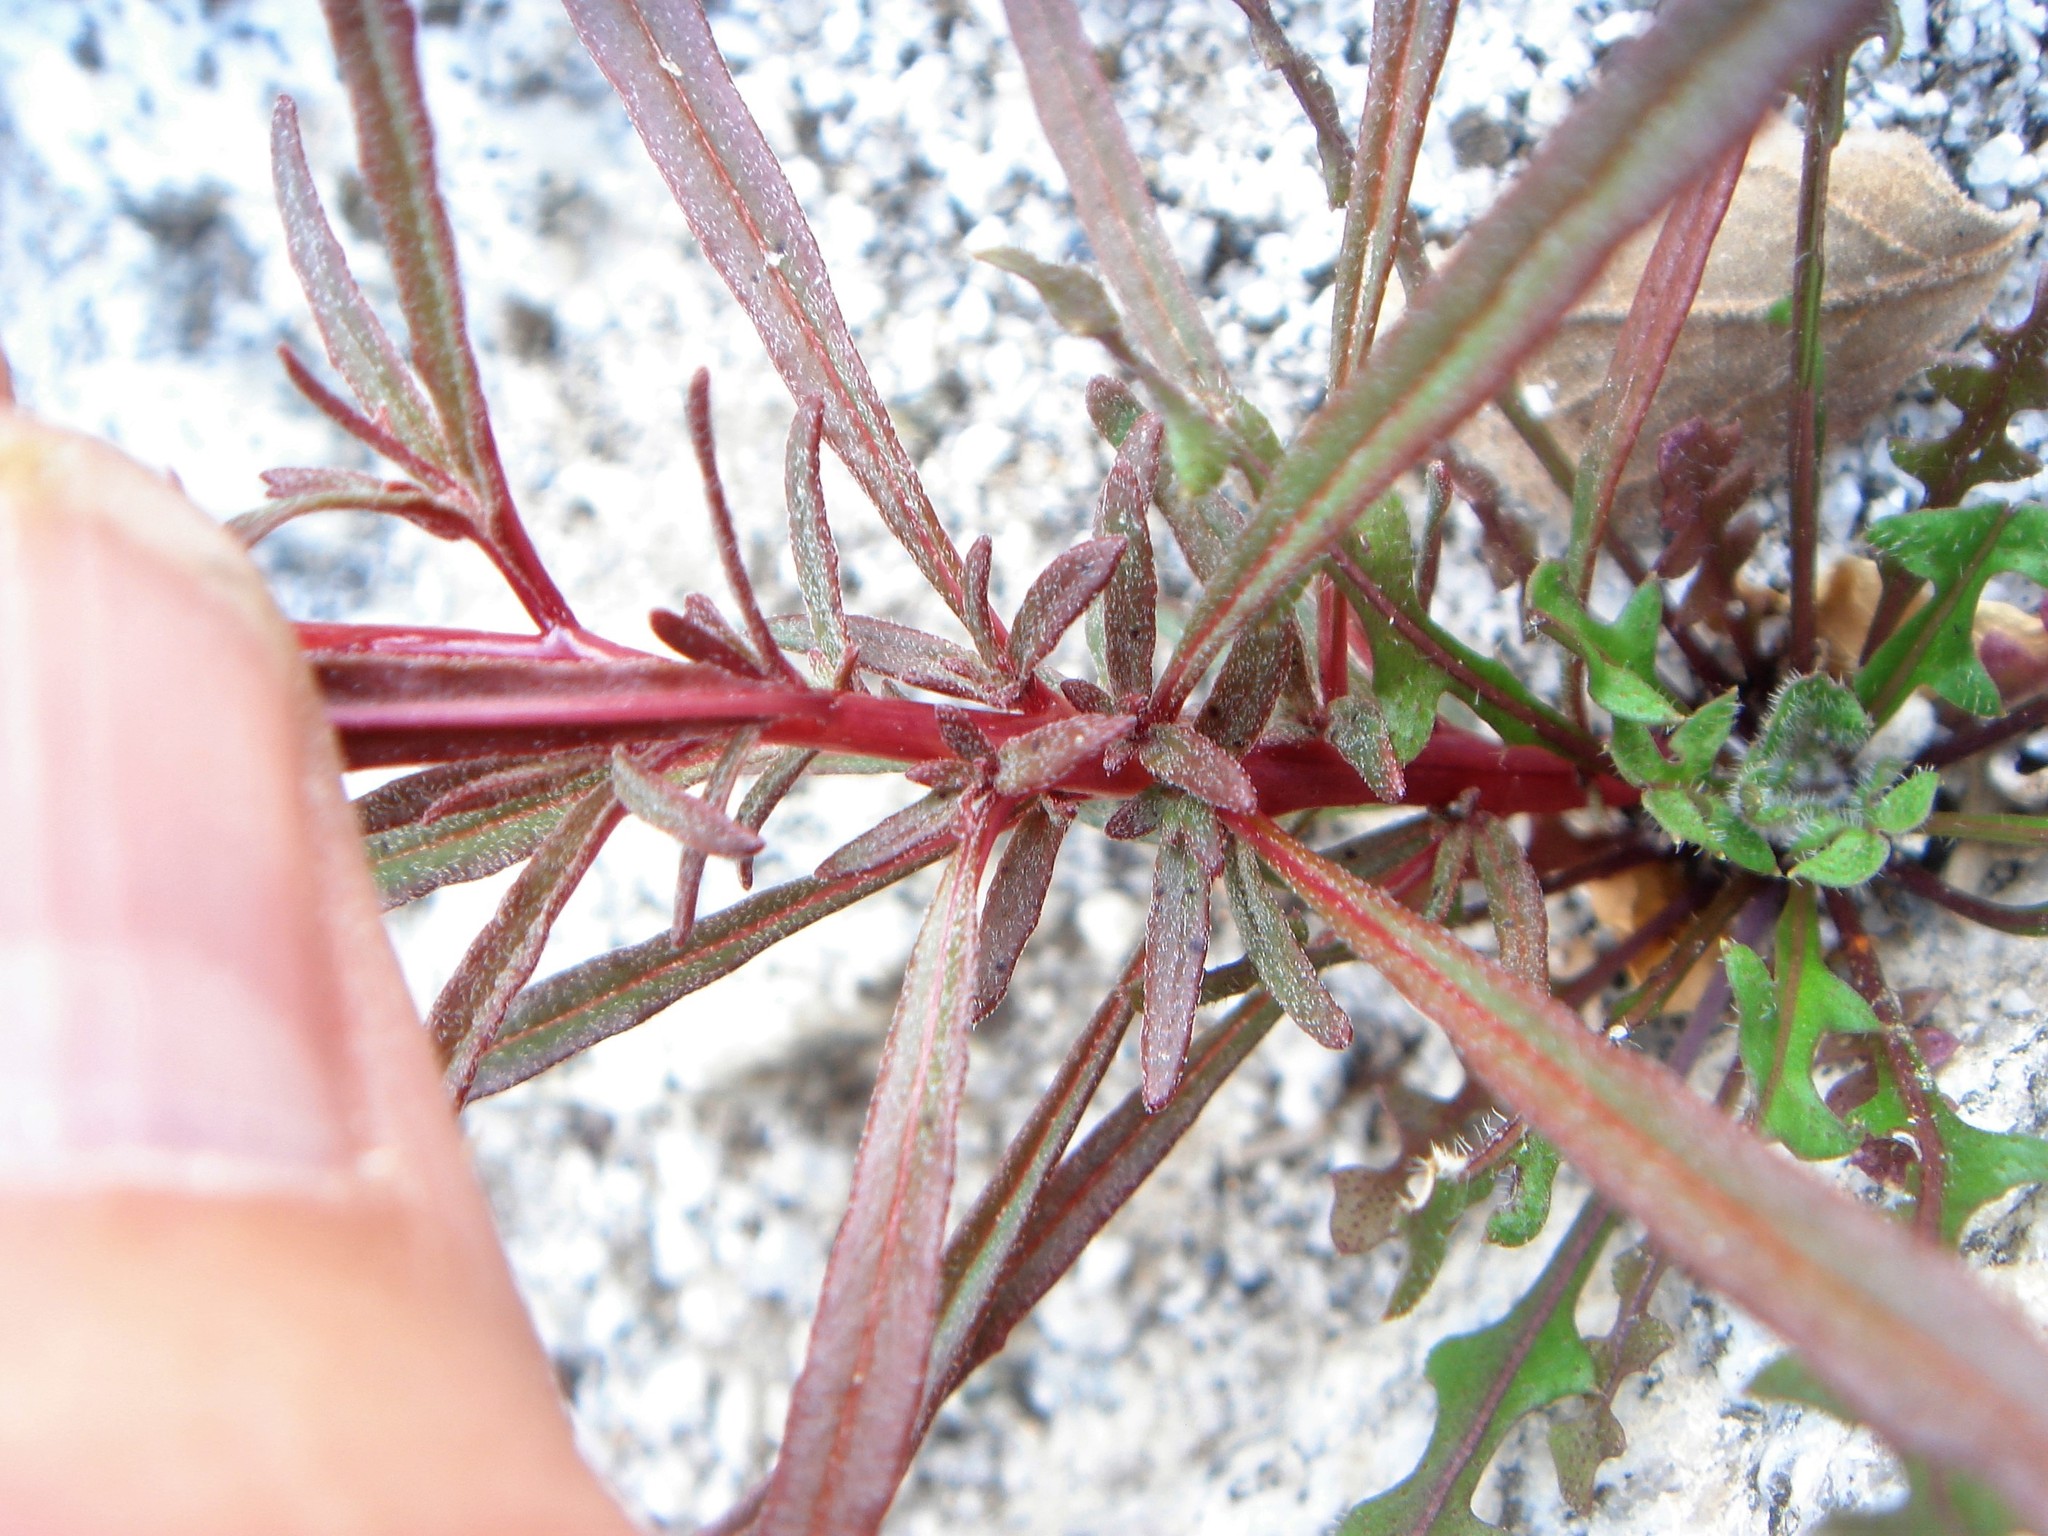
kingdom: Plantae
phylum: Tracheophyta
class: Magnoliopsida
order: Myrtales
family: Onagraceae
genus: Eremothera
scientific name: Eremothera refracta
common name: Narrowleaf suncup
